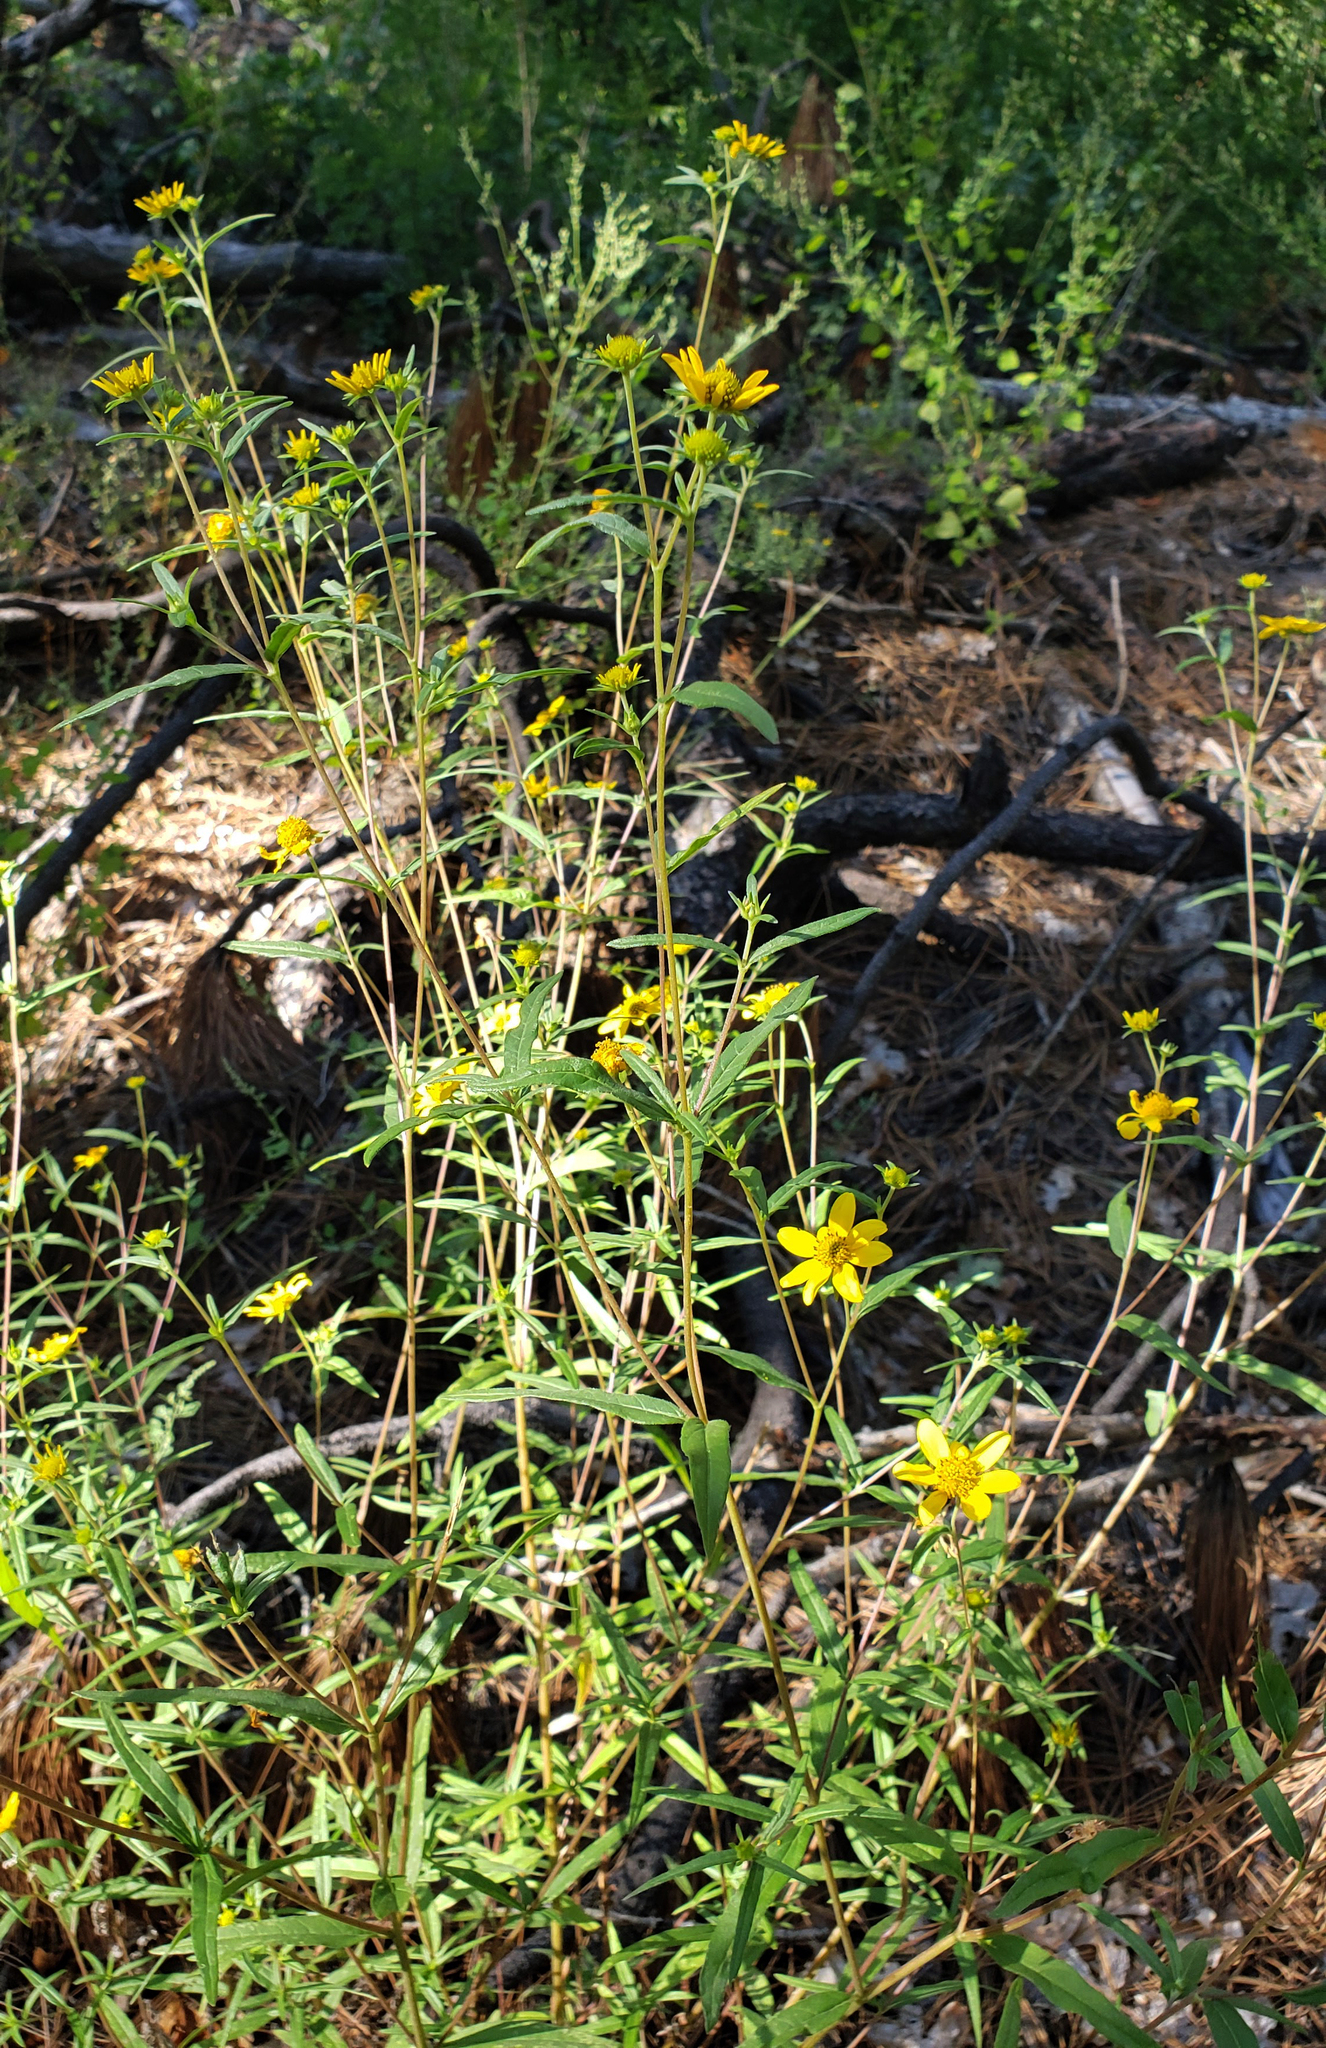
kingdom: Plantae
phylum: Tracheophyta
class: Magnoliopsida
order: Asterales
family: Asteraceae
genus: Heliomeris
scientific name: Heliomeris multiflora
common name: Showy goldeneye
